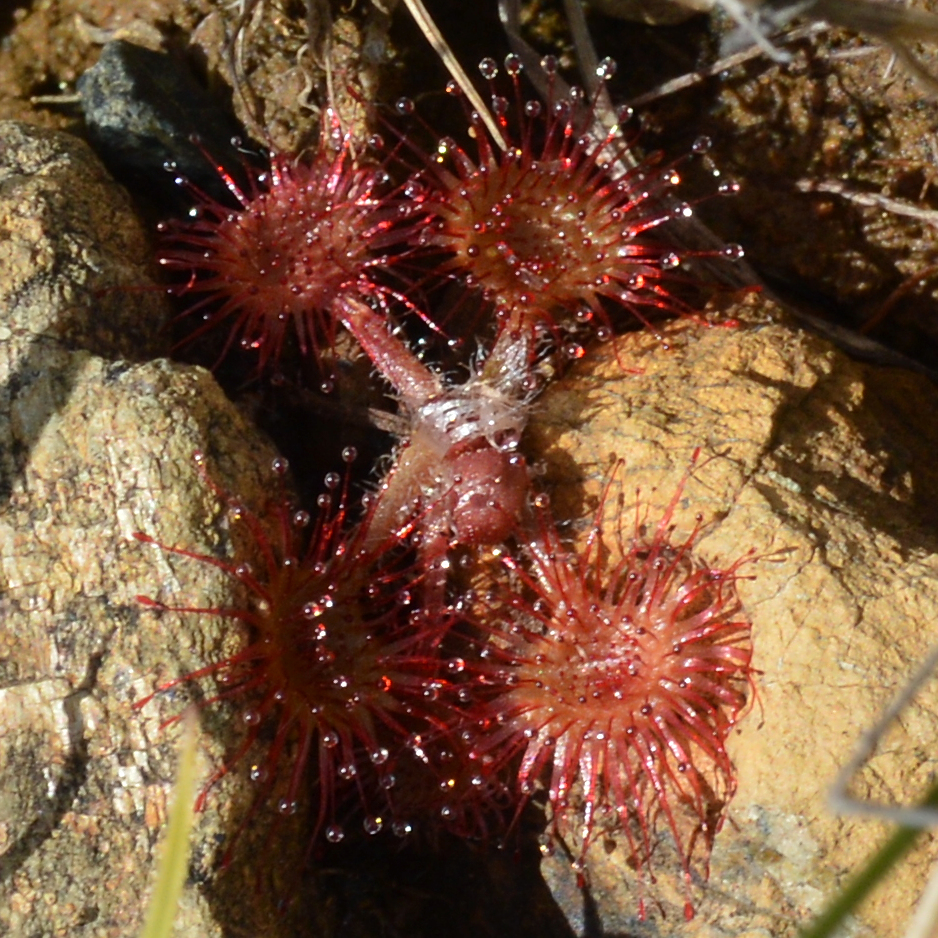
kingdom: Plantae
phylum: Tracheophyta
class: Magnoliopsida
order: Caryophyllales
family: Droseraceae
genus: Drosera
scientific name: Drosera rotundifolia
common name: Round-leaved sundew
